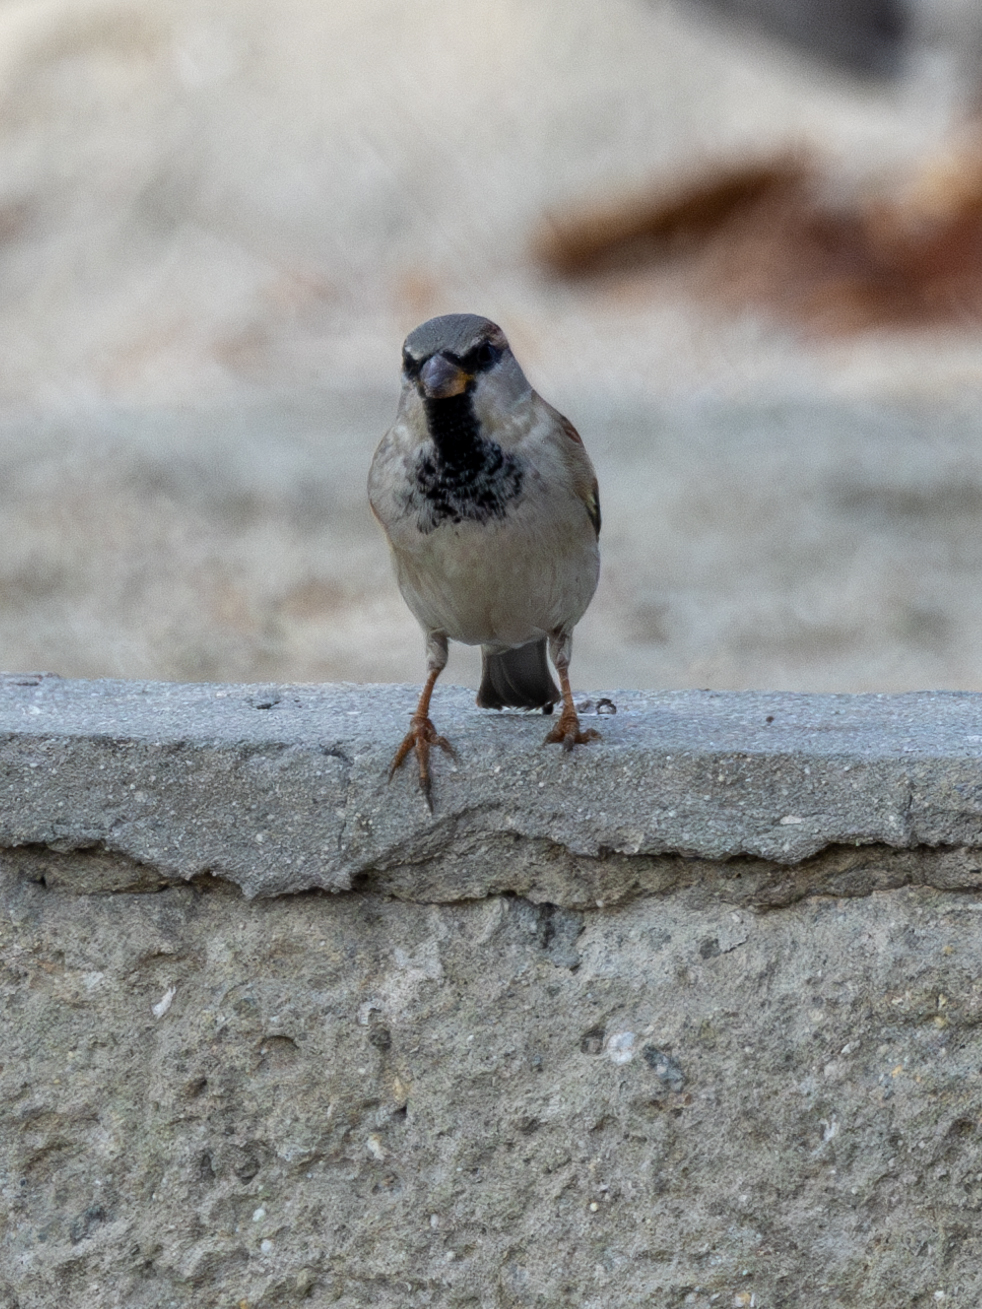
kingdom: Animalia
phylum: Chordata
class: Aves
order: Passeriformes
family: Passeridae
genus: Passer
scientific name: Passer domesticus
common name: House sparrow
